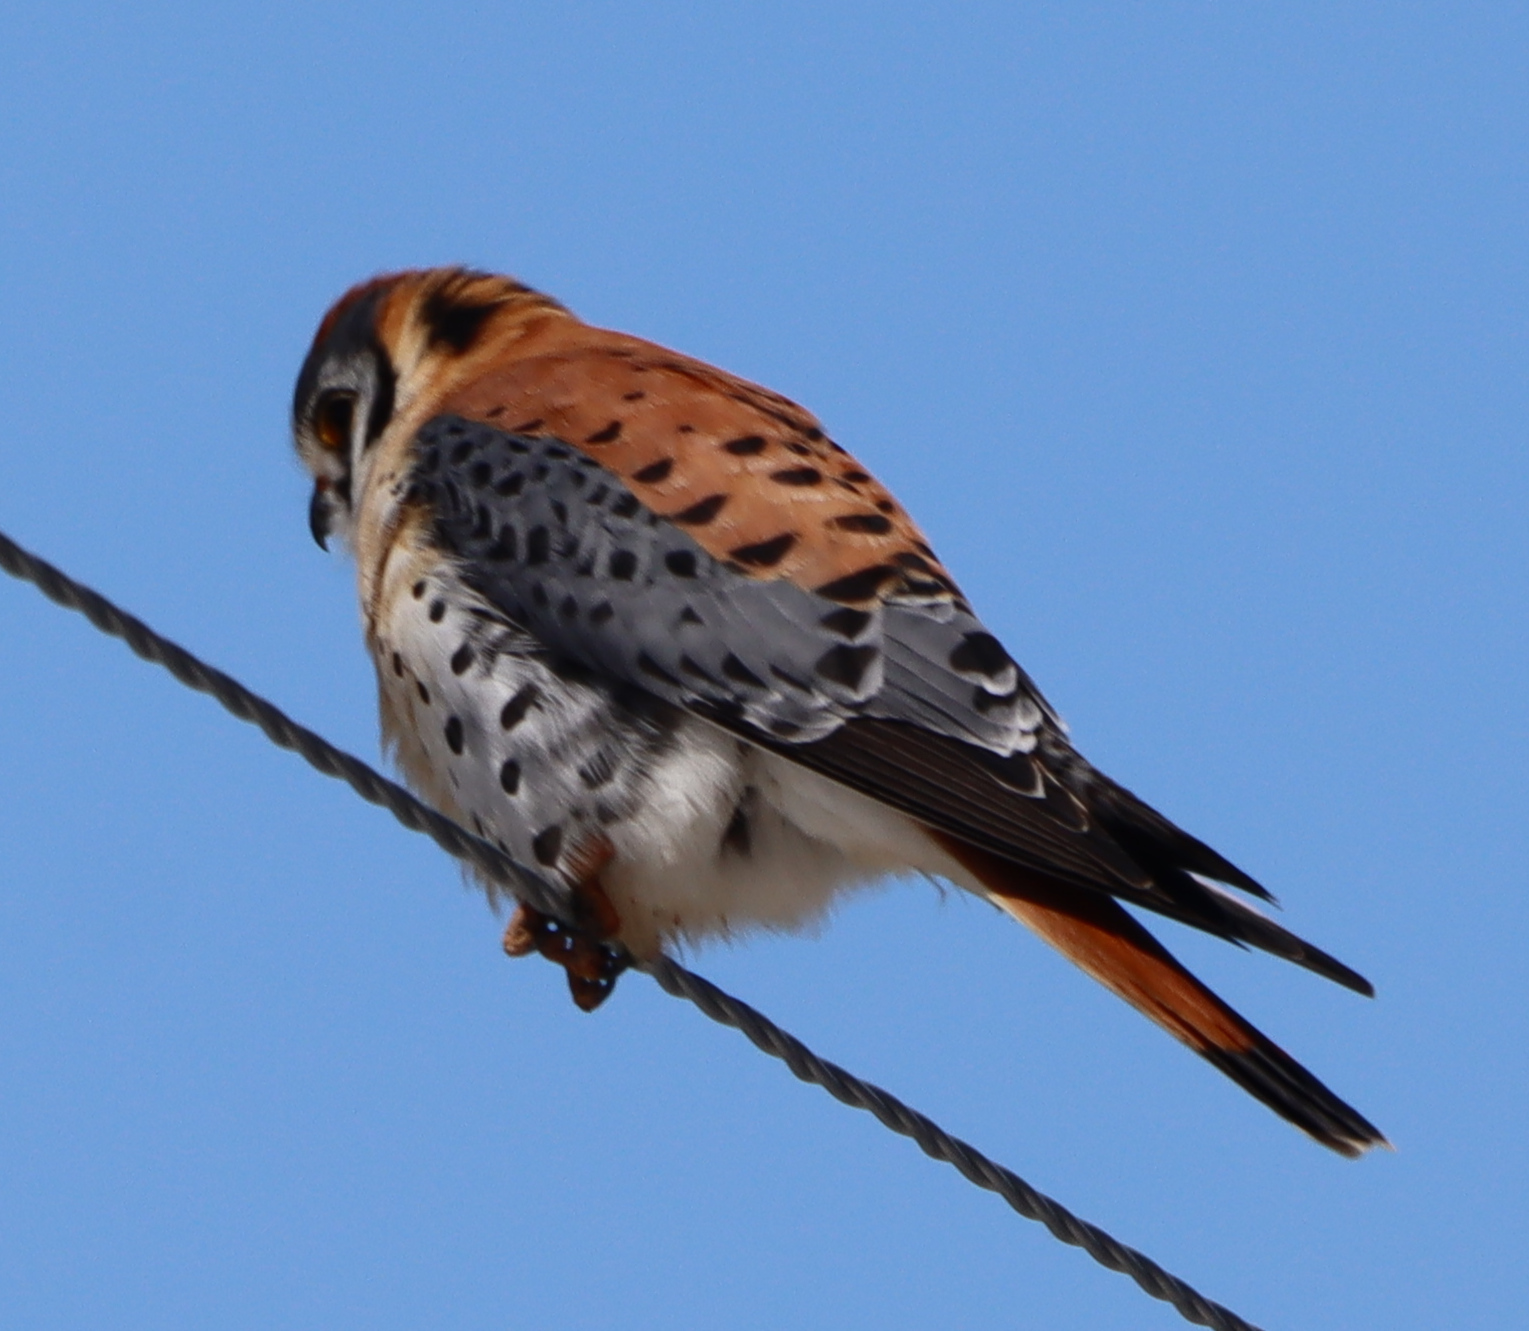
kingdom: Animalia
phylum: Chordata
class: Aves
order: Falconiformes
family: Falconidae
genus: Falco
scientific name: Falco sparverius
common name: American kestrel
